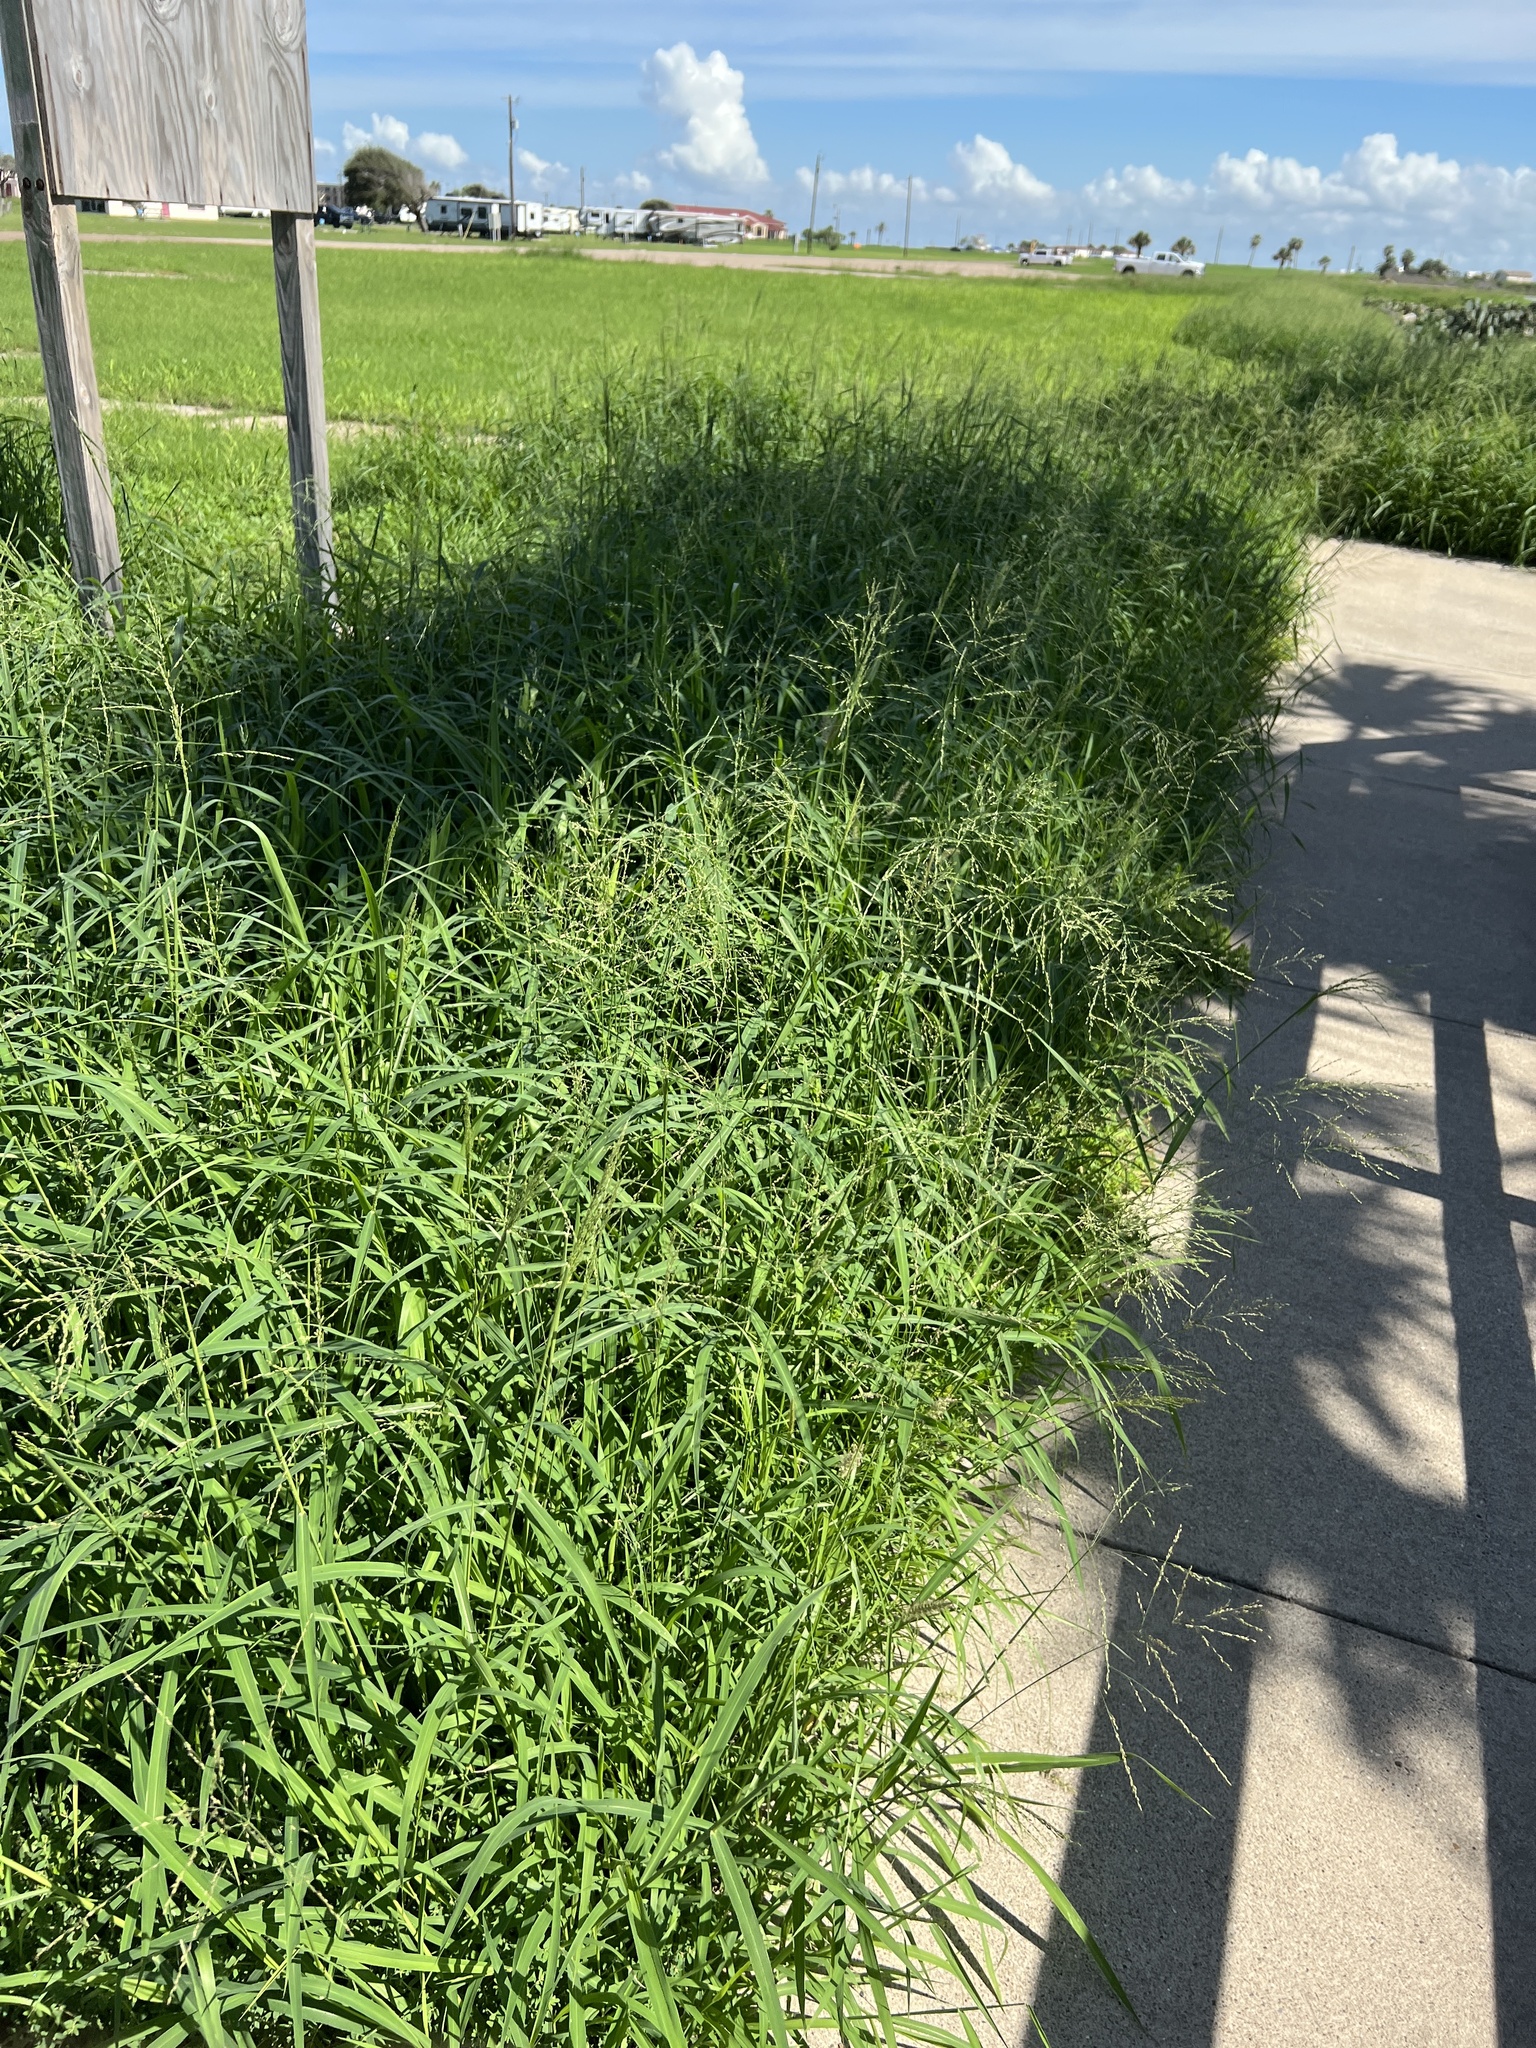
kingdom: Plantae
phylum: Tracheophyta
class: Liliopsida
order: Poales
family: Poaceae
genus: Megathyrsus
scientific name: Megathyrsus maximus
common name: Guineagrass
